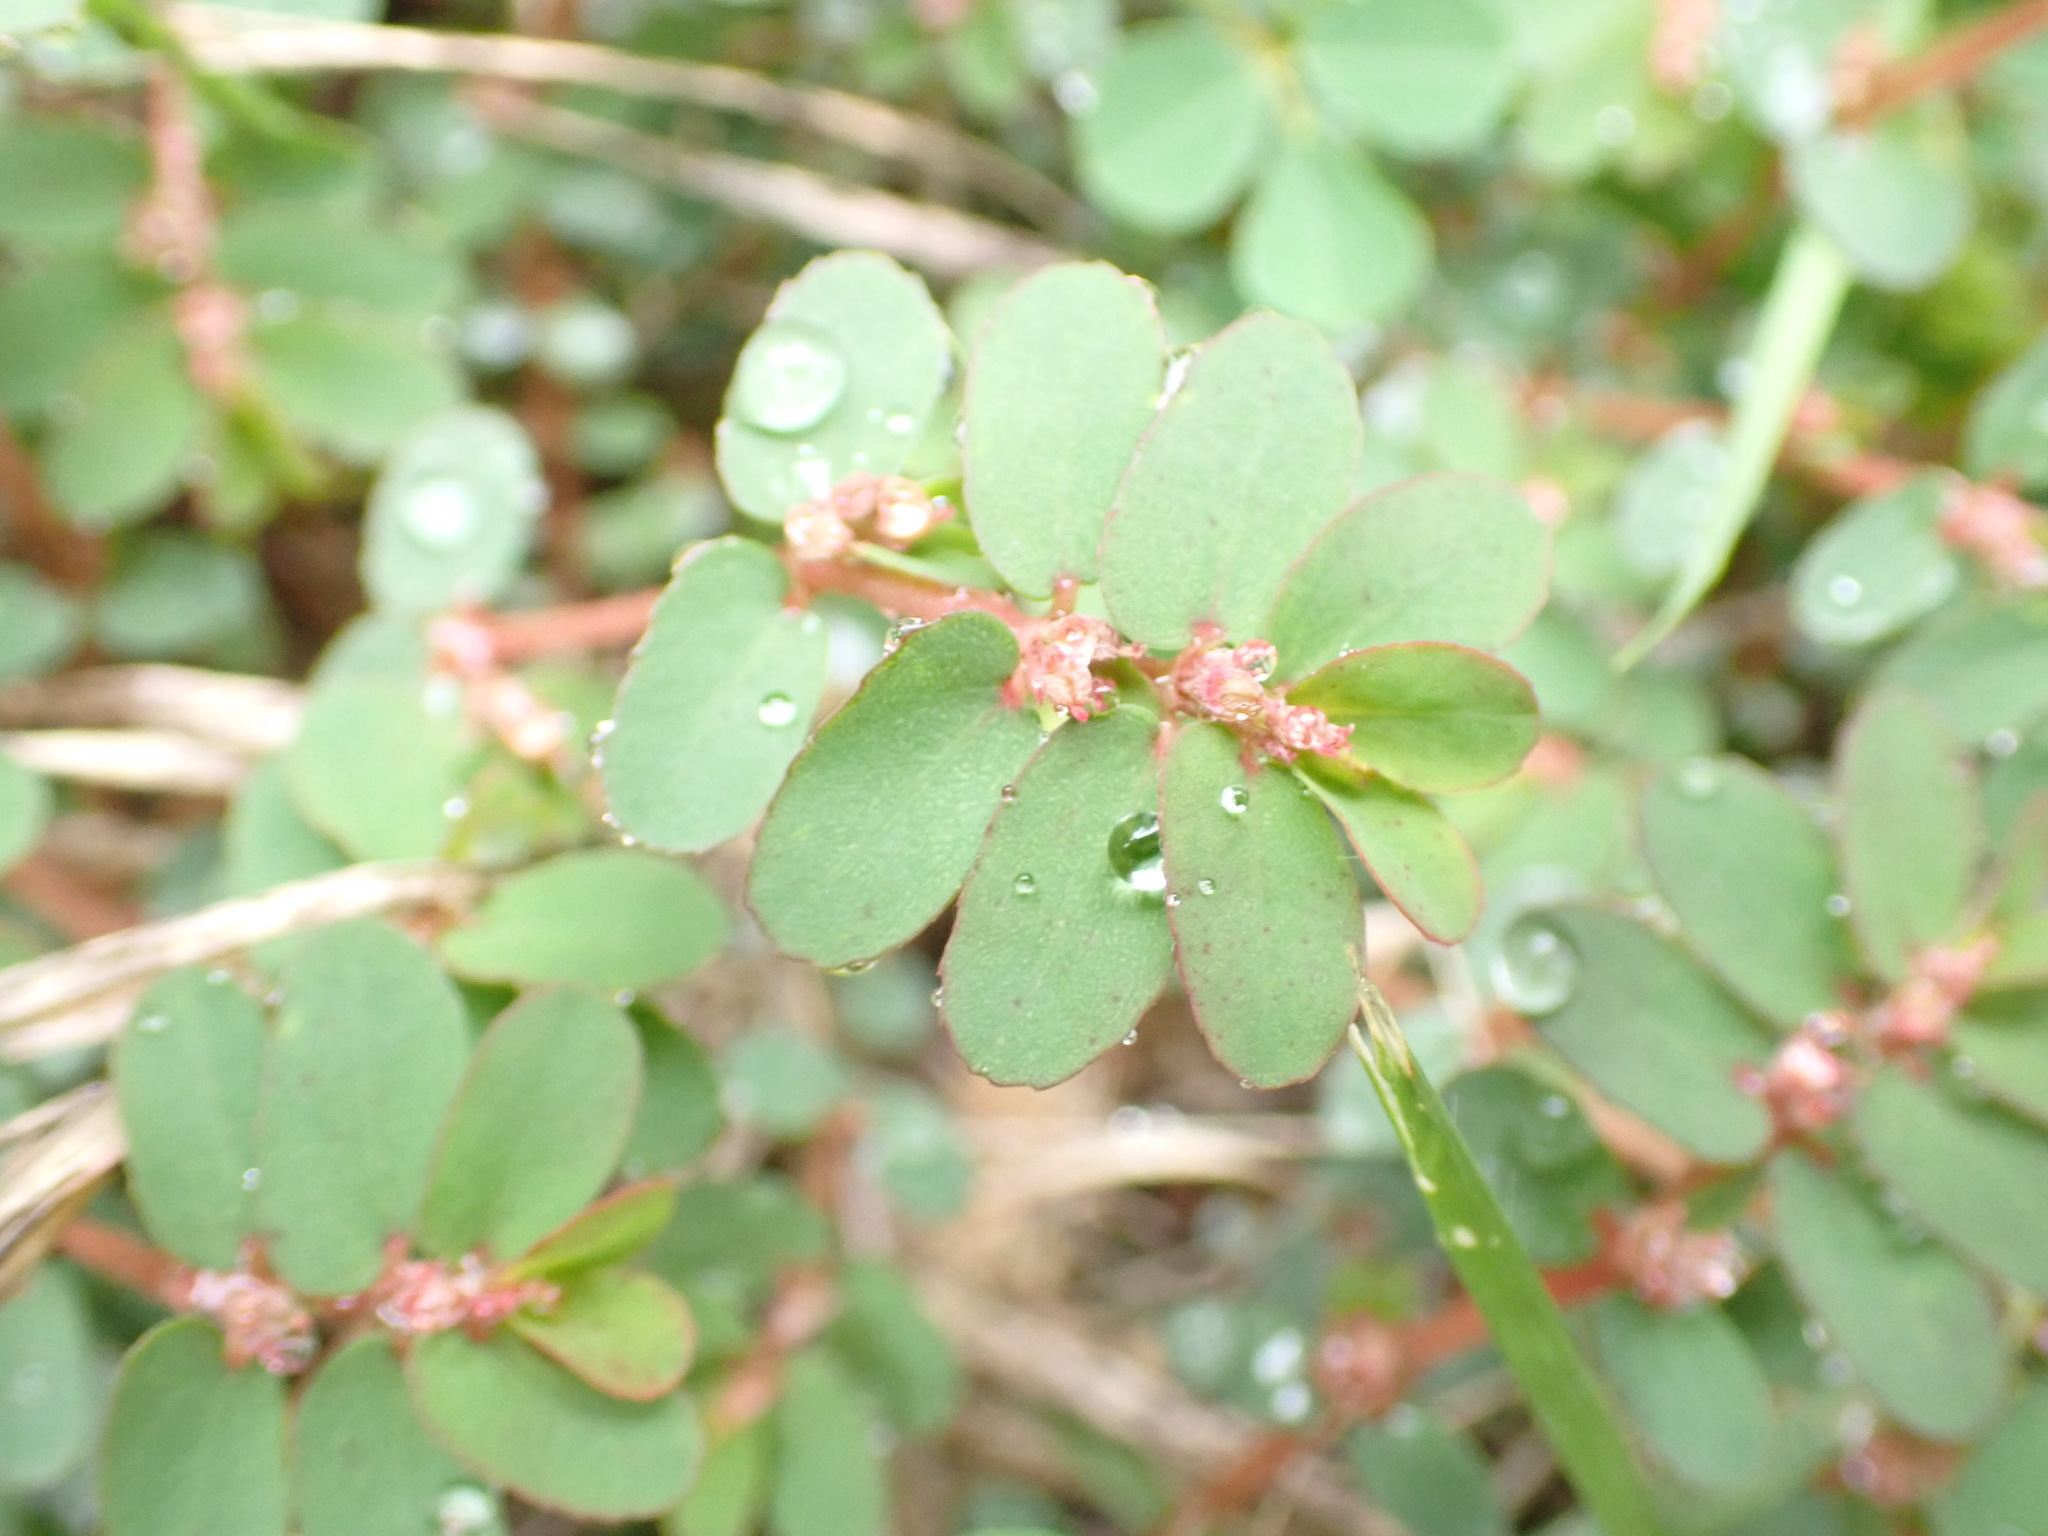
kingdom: Plantae
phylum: Tracheophyta
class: Magnoliopsida
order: Malpighiales
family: Euphorbiaceae
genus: Euphorbia
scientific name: Euphorbia thymifolia
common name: Gulf sandmat
